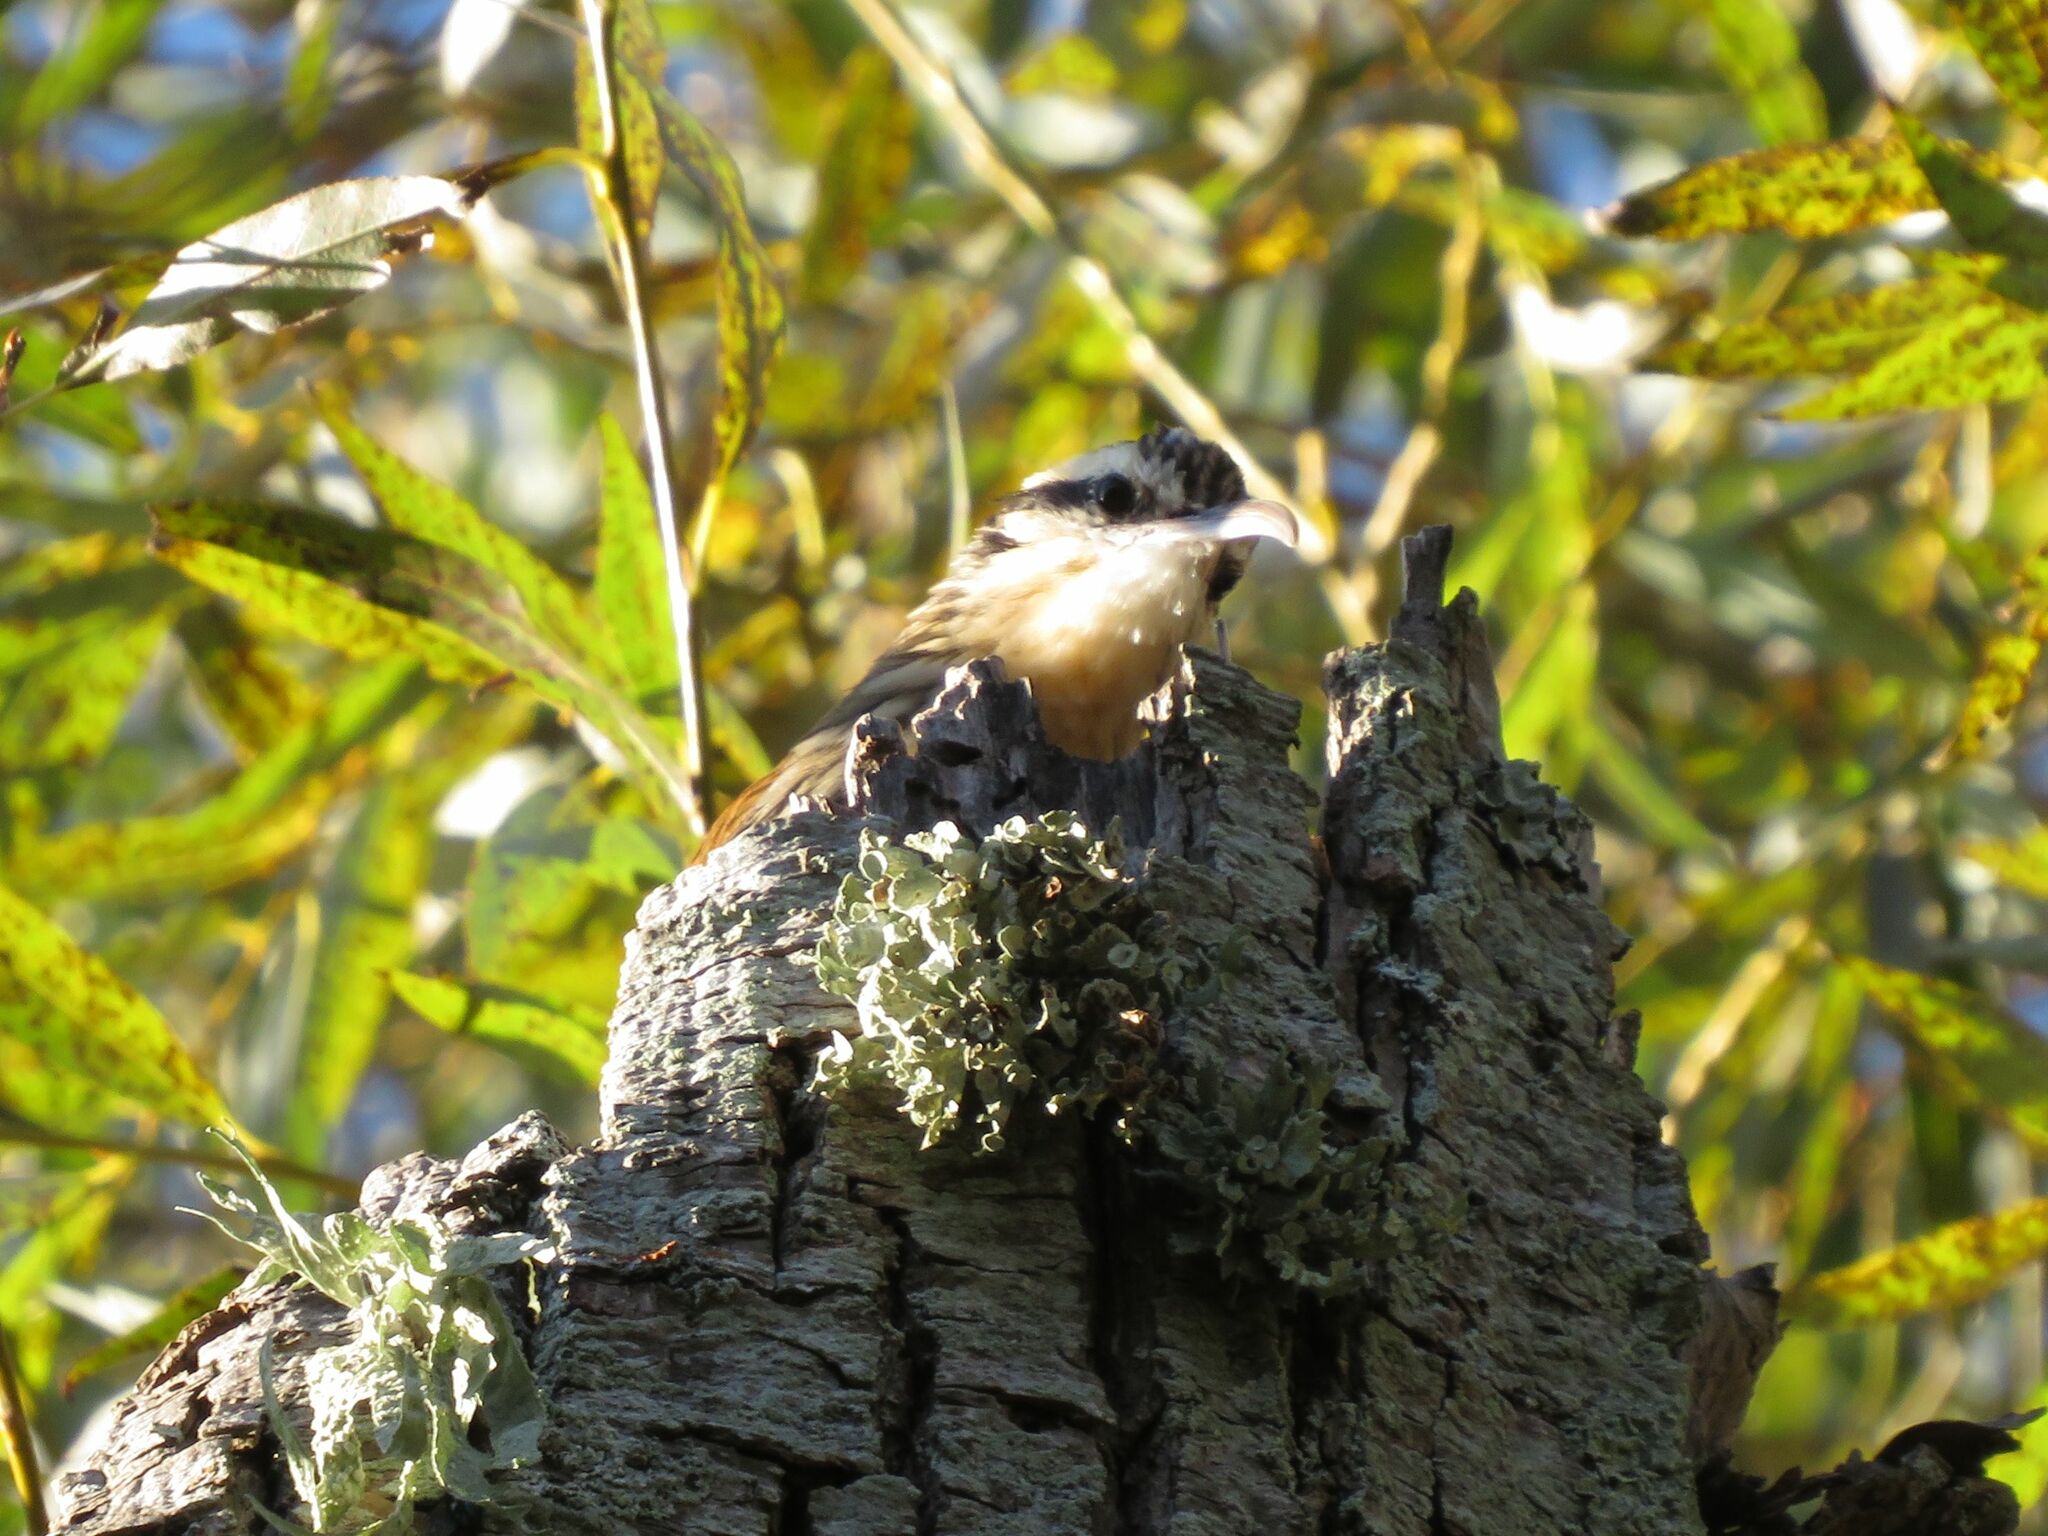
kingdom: Animalia
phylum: Chordata
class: Aves
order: Passeriformes
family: Furnariidae
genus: Lepidocolaptes
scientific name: Lepidocolaptes angustirostris
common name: Narrow-billed woodcreeper
